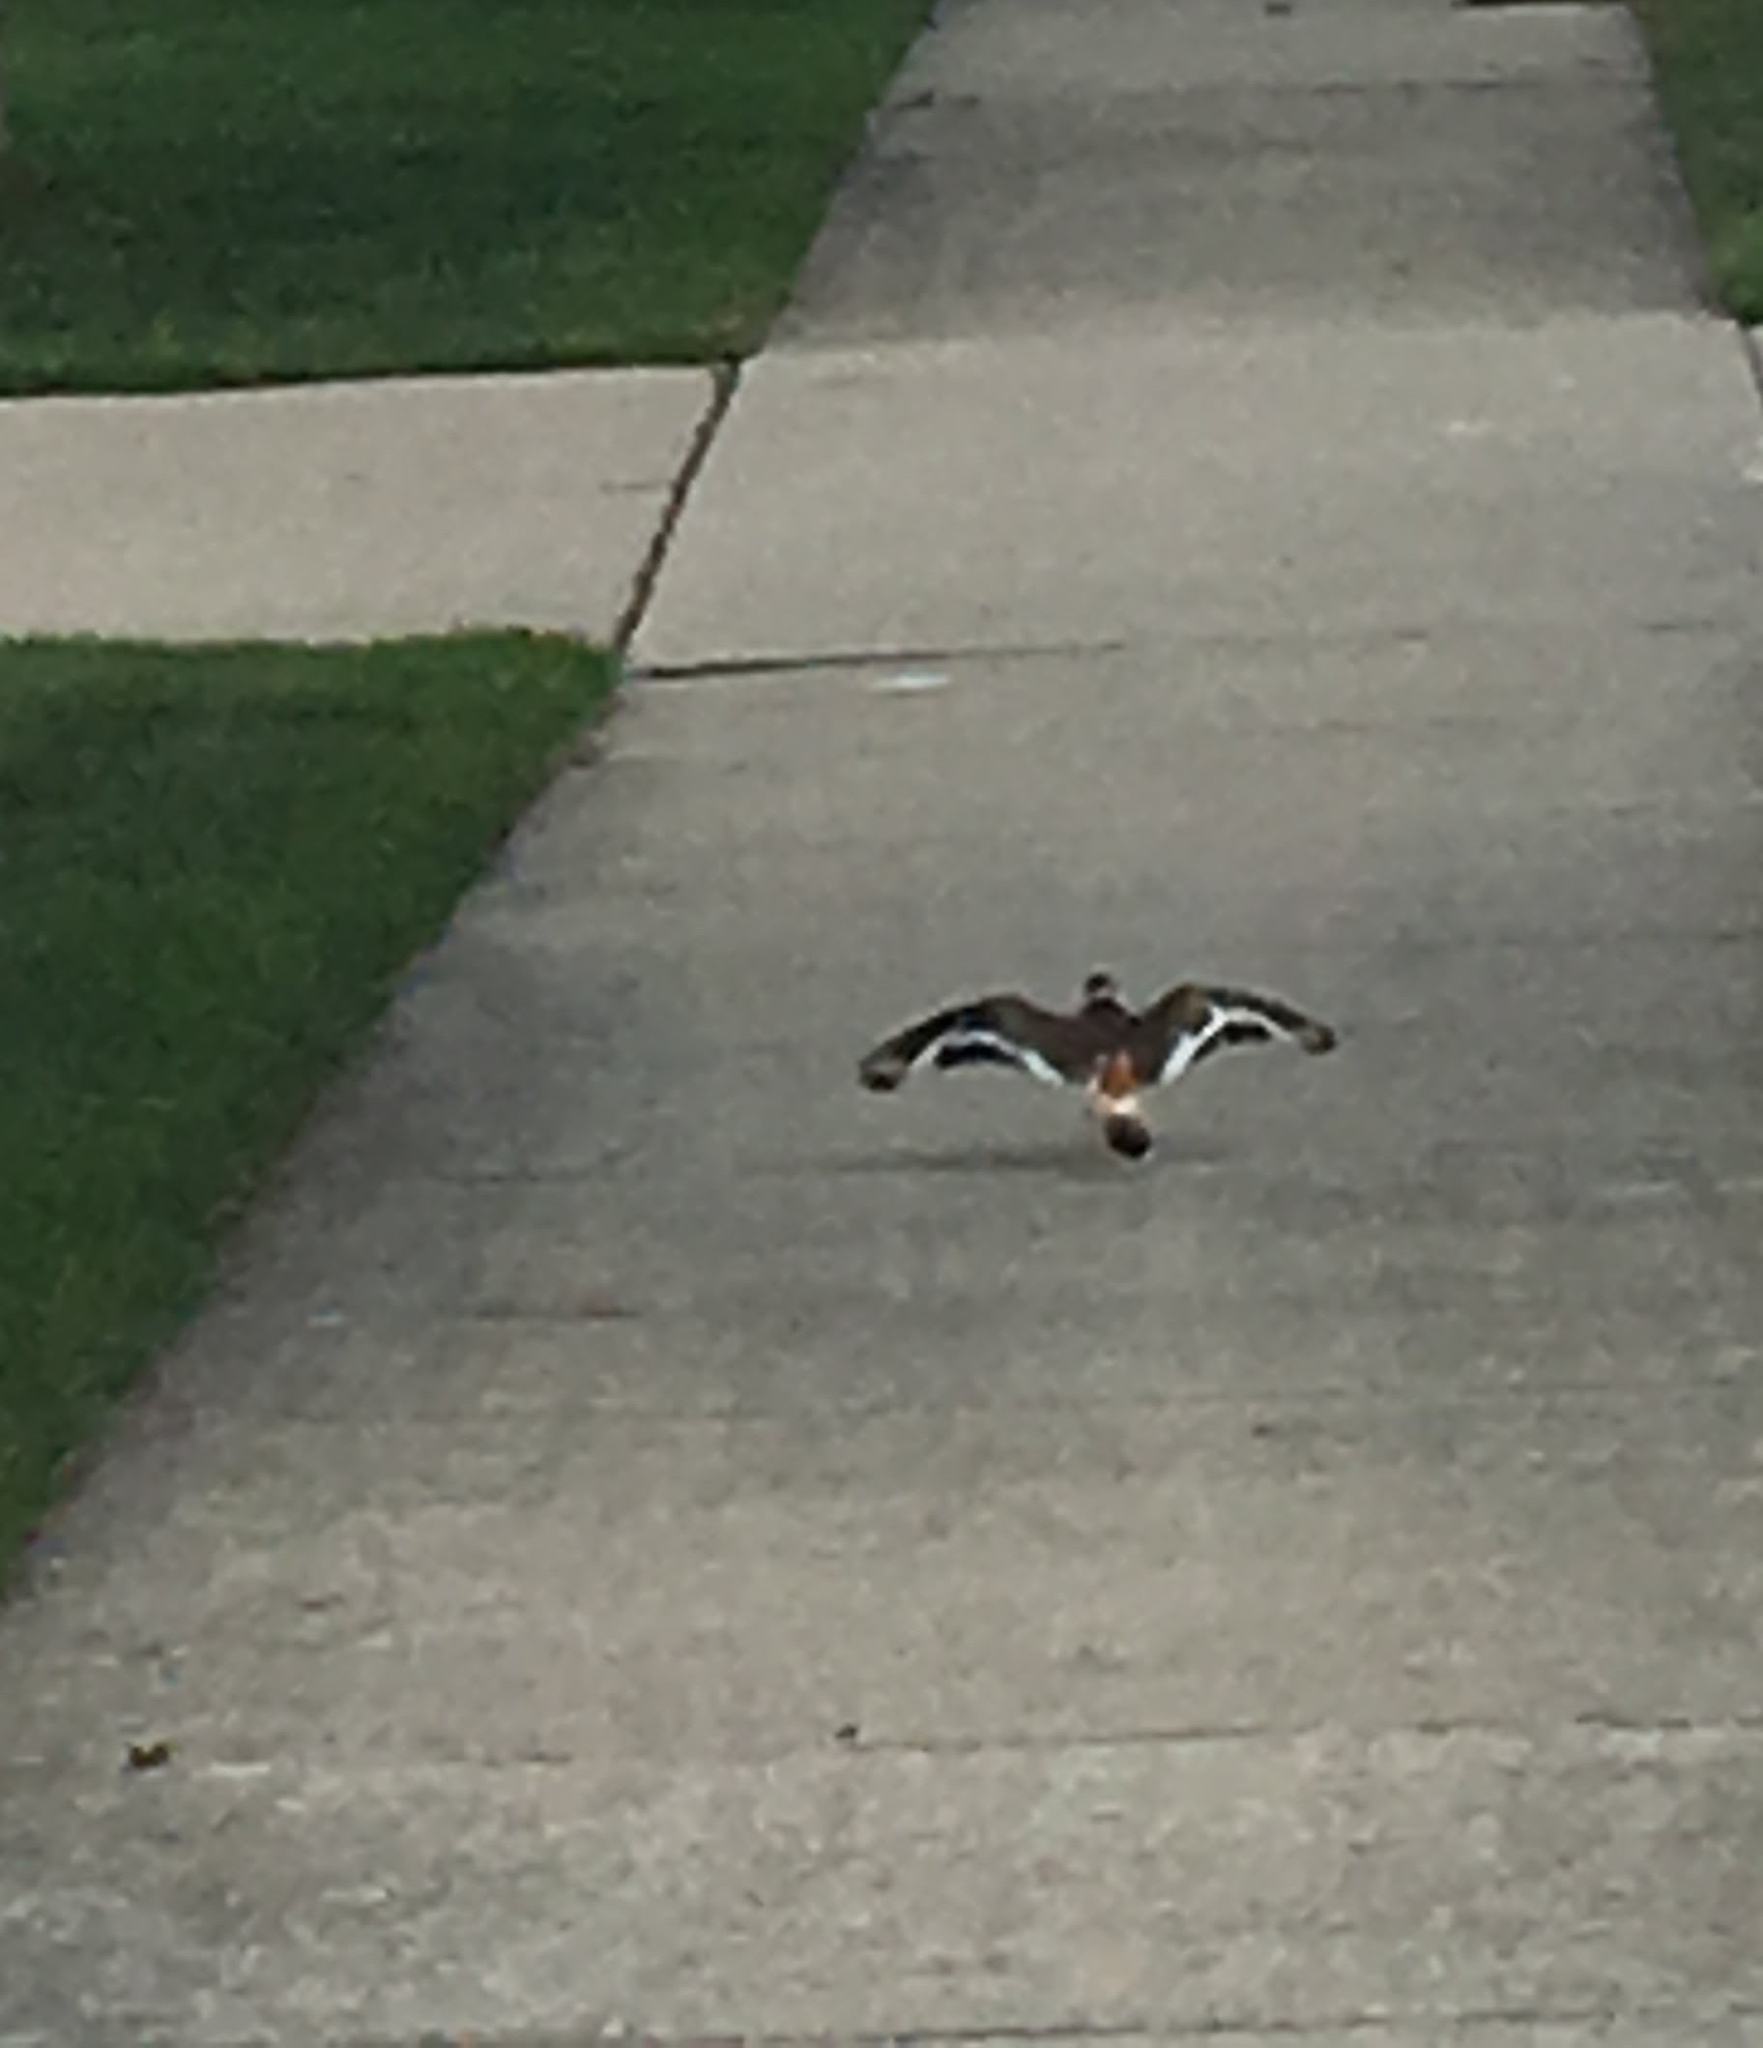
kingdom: Animalia
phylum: Chordata
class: Aves
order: Charadriiformes
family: Charadriidae
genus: Charadrius
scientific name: Charadrius vociferus
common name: Killdeer
